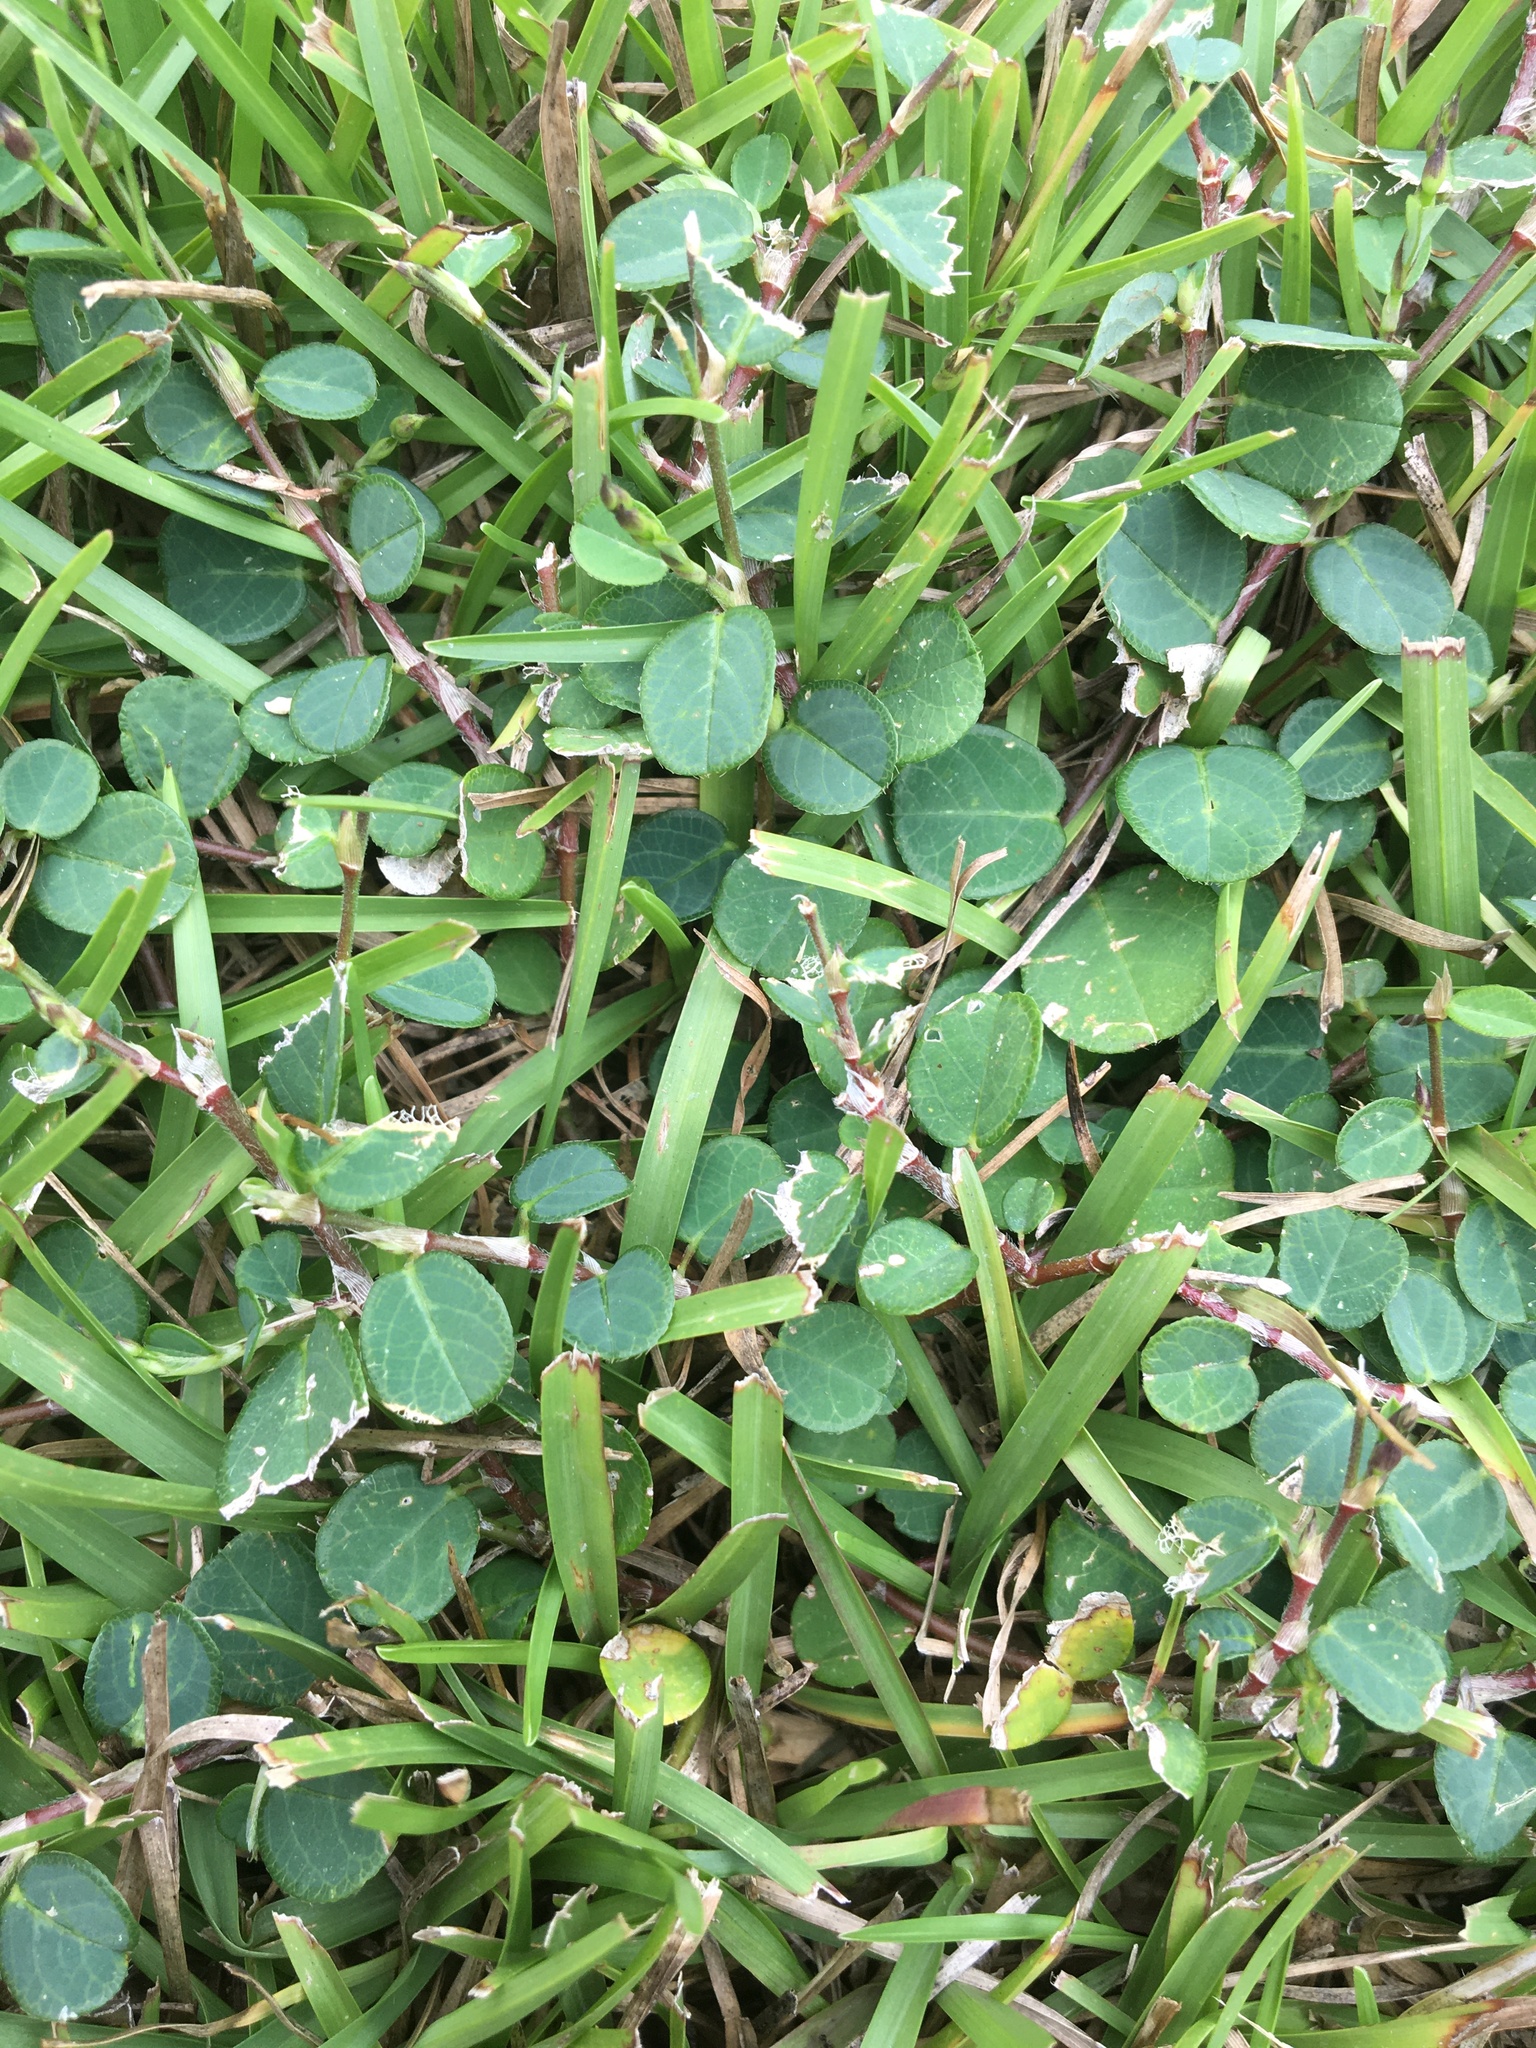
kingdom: Plantae
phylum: Tracheophyta
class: Magnoliopsida
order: Fabales
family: Fabaceae
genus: Alysicarpus
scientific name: Alysicarpus vaginalis
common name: White moneywort
